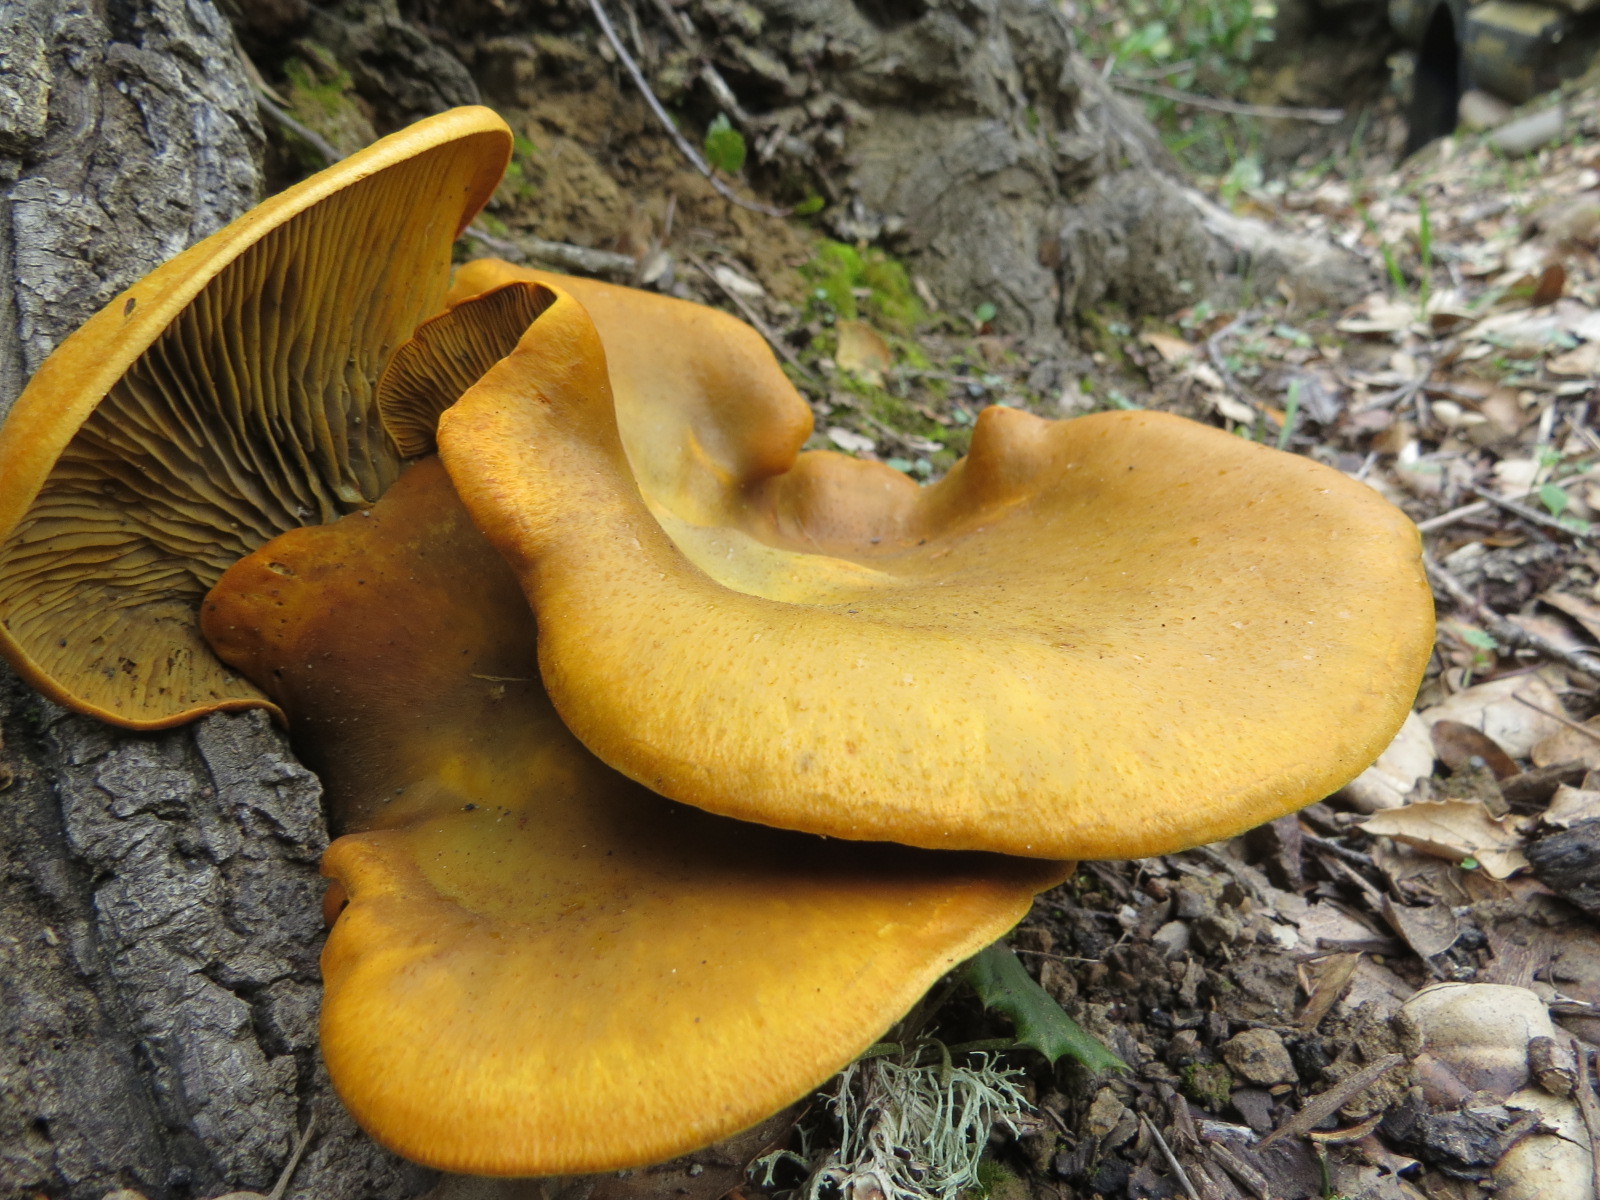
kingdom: Fungi
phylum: Basidiomycota
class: Agaricomycetes
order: Agaricales
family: Omphalotaceae
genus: Omphalotus
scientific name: Omphalotus olivascens
